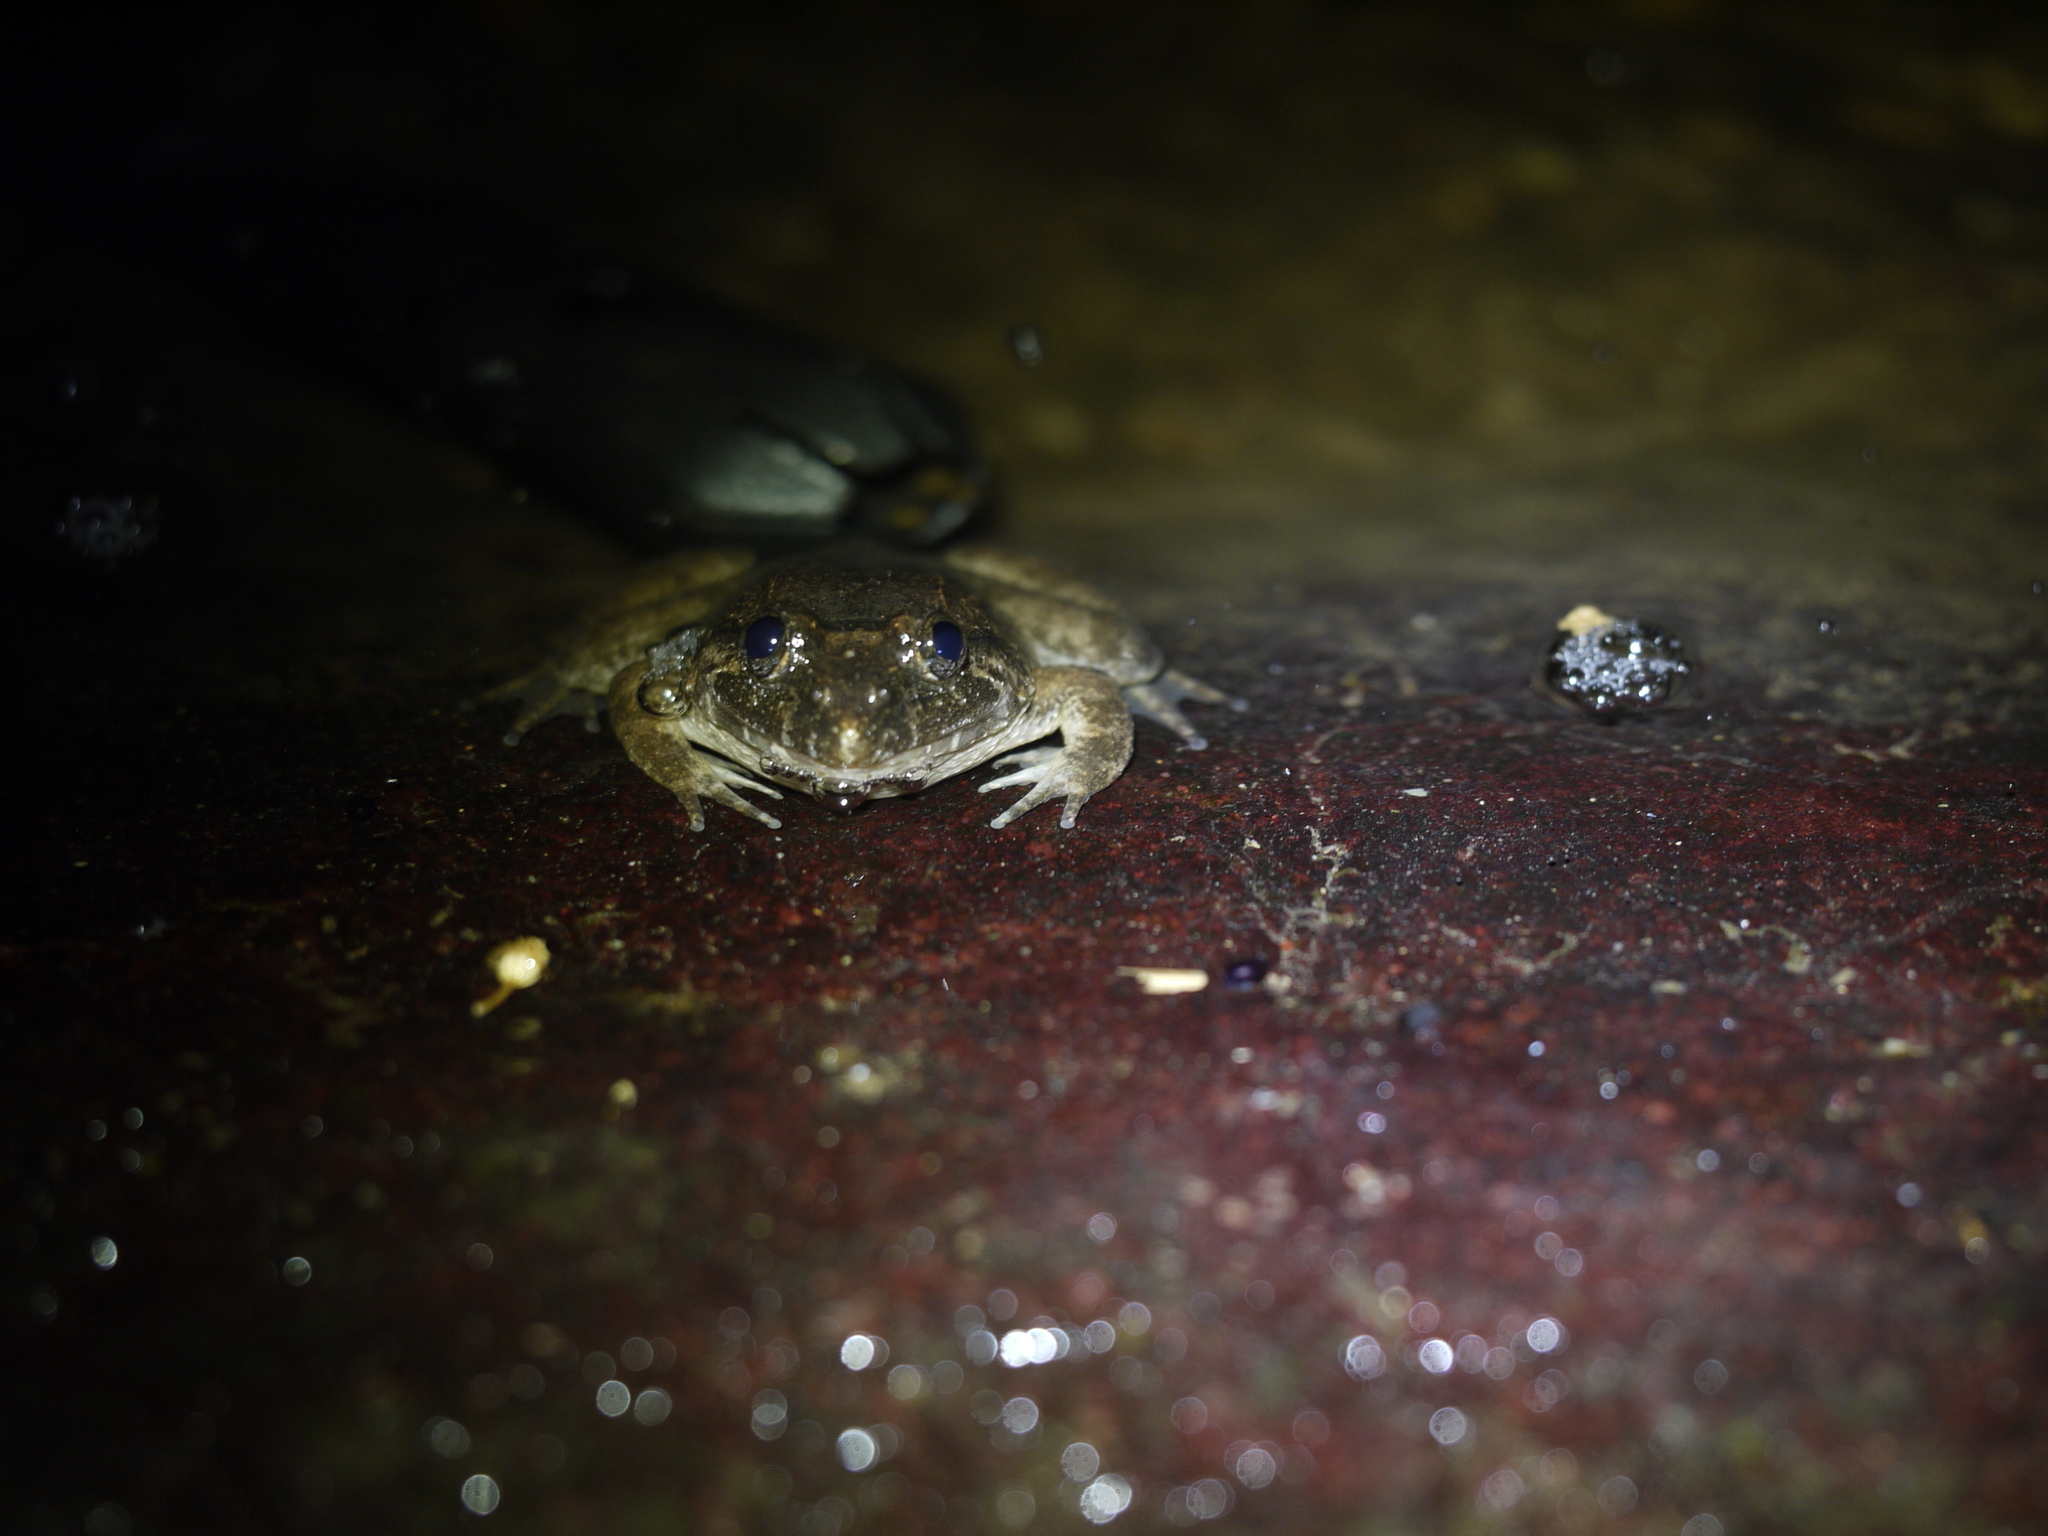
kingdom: Animalia
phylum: Chordata
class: Amphibia
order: Anura
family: Dicroglossidae
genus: Limnonectes
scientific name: Limnonectes fujianensis
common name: Fujian large-headed frog
